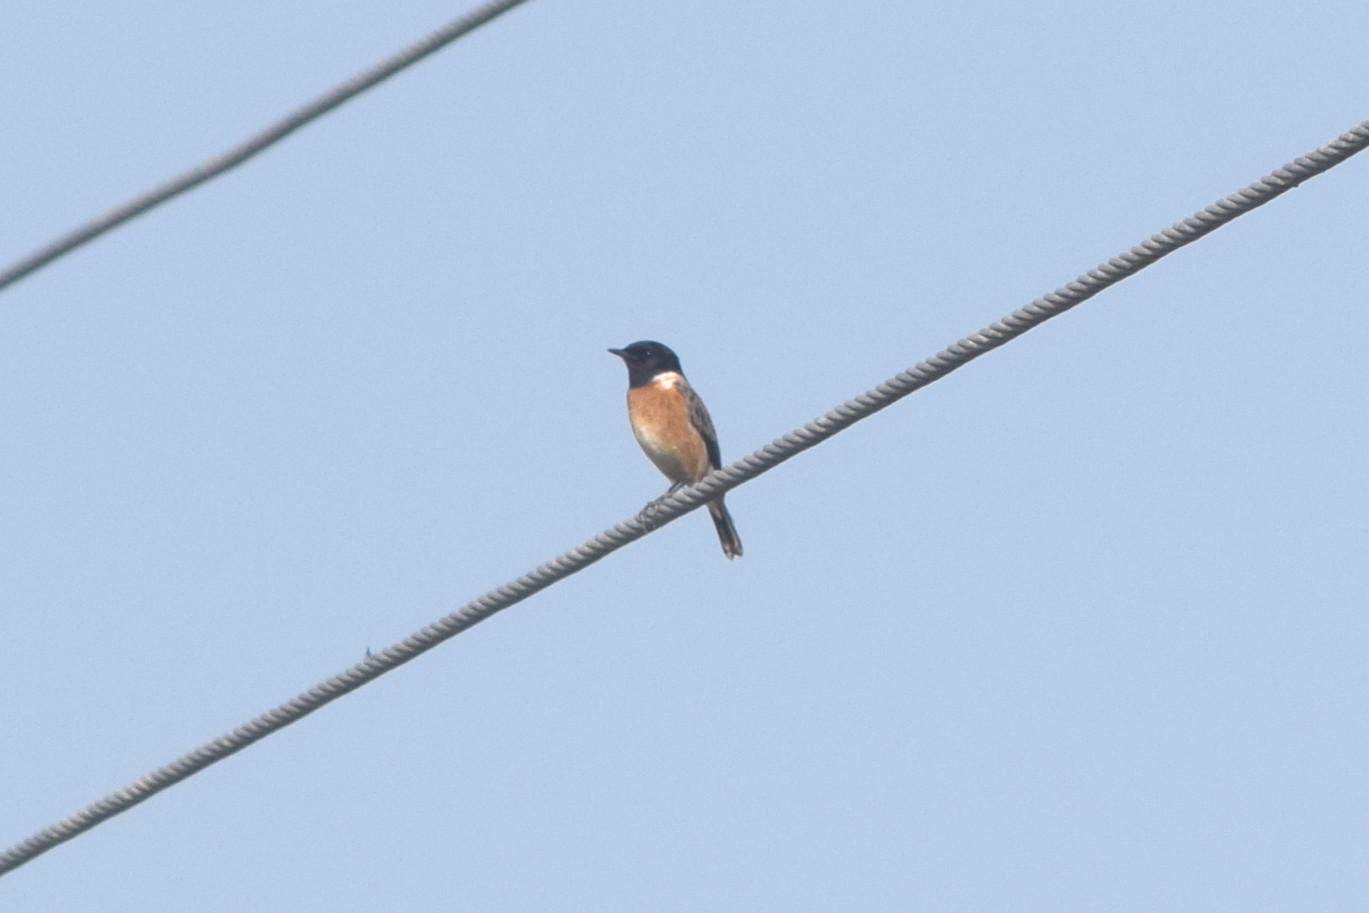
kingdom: Animalia
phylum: Chordata
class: Aves
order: Passeriformes
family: Muscicapidae
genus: Saxicola
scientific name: Saxicola maurus
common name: Siberian stonechat
